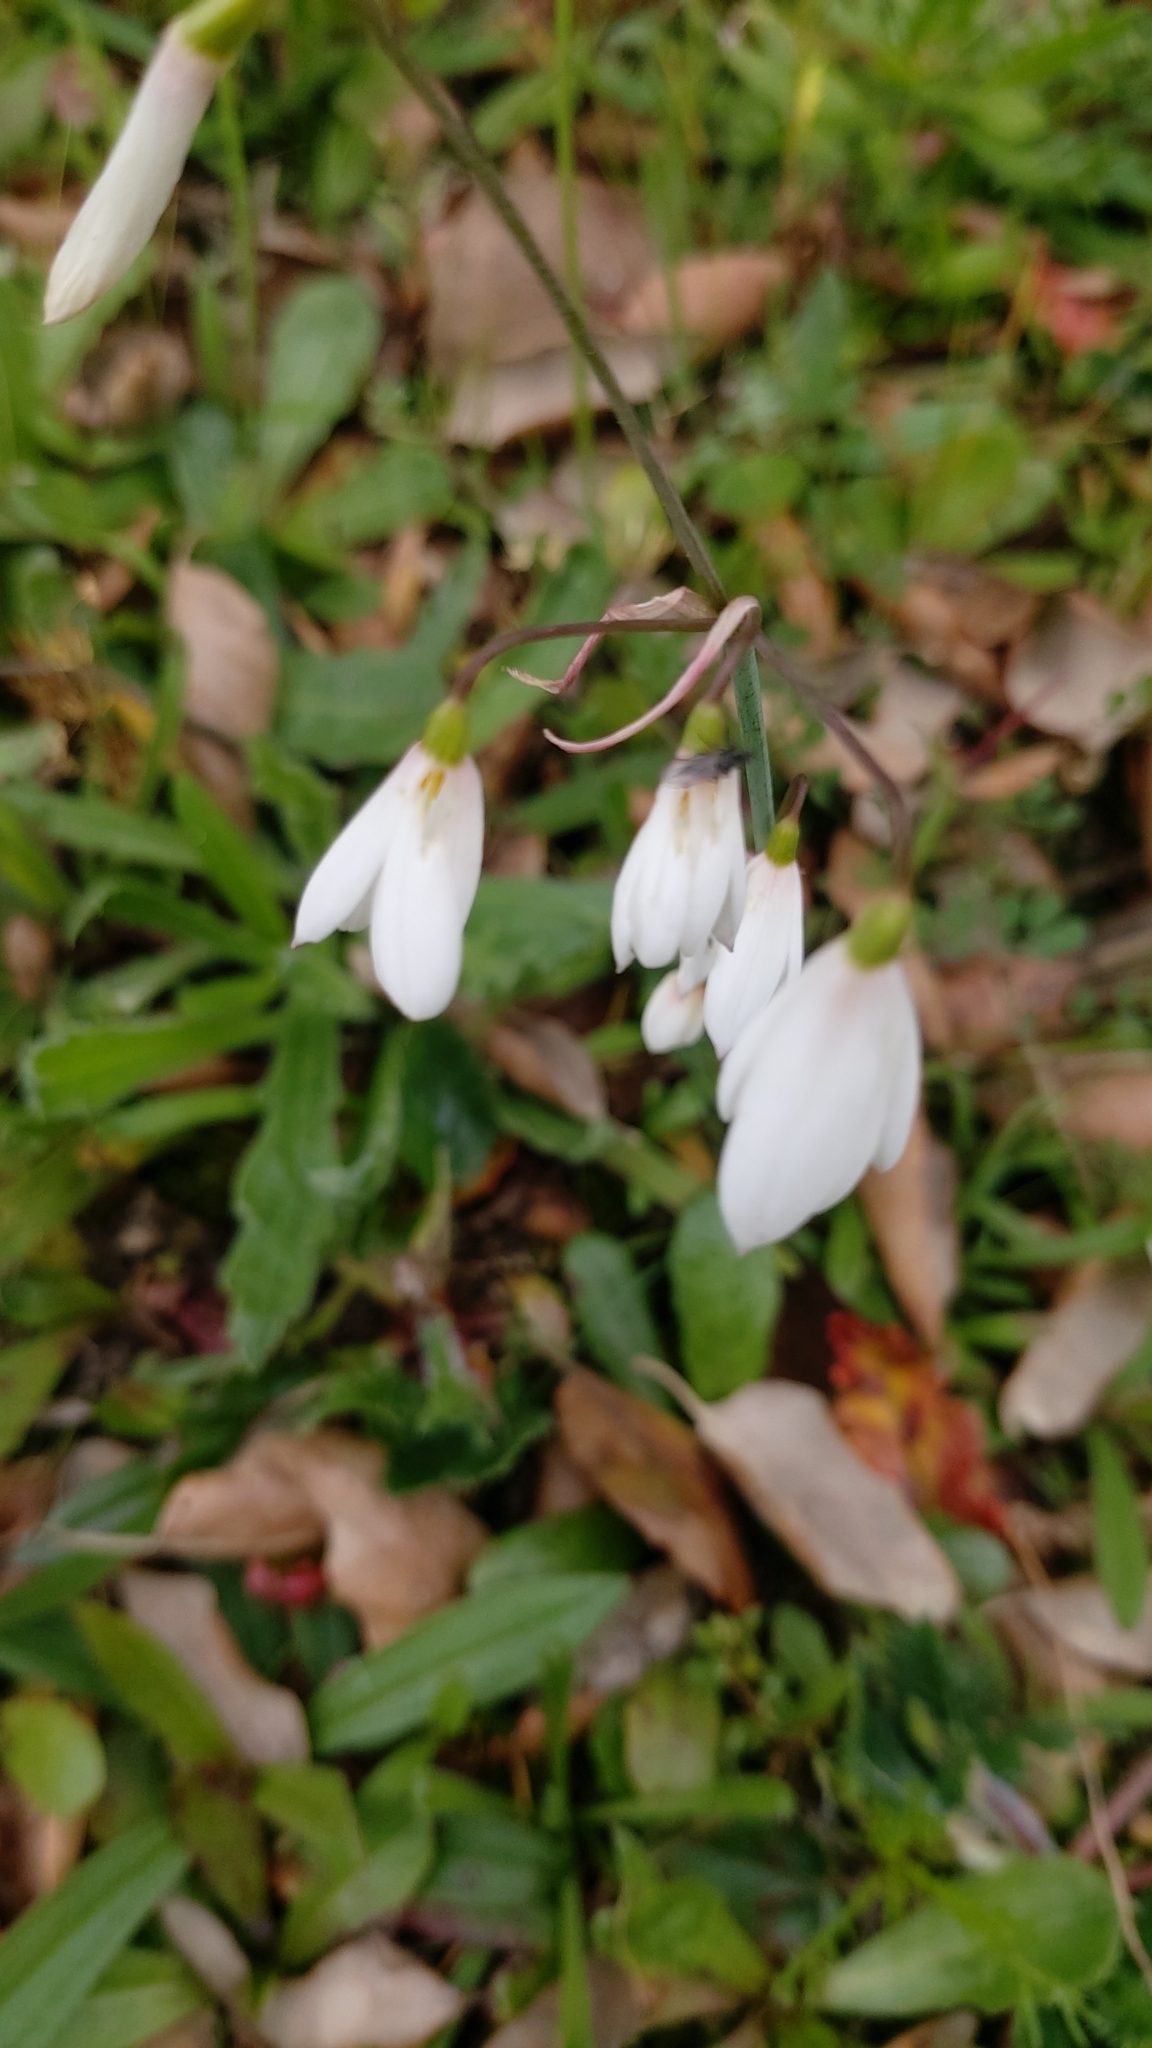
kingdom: Plantae
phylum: Tracheophyta
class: Liliopsida
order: Asparagales
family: Amaryllidaceae
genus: Acis
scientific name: Acis trichophylla
